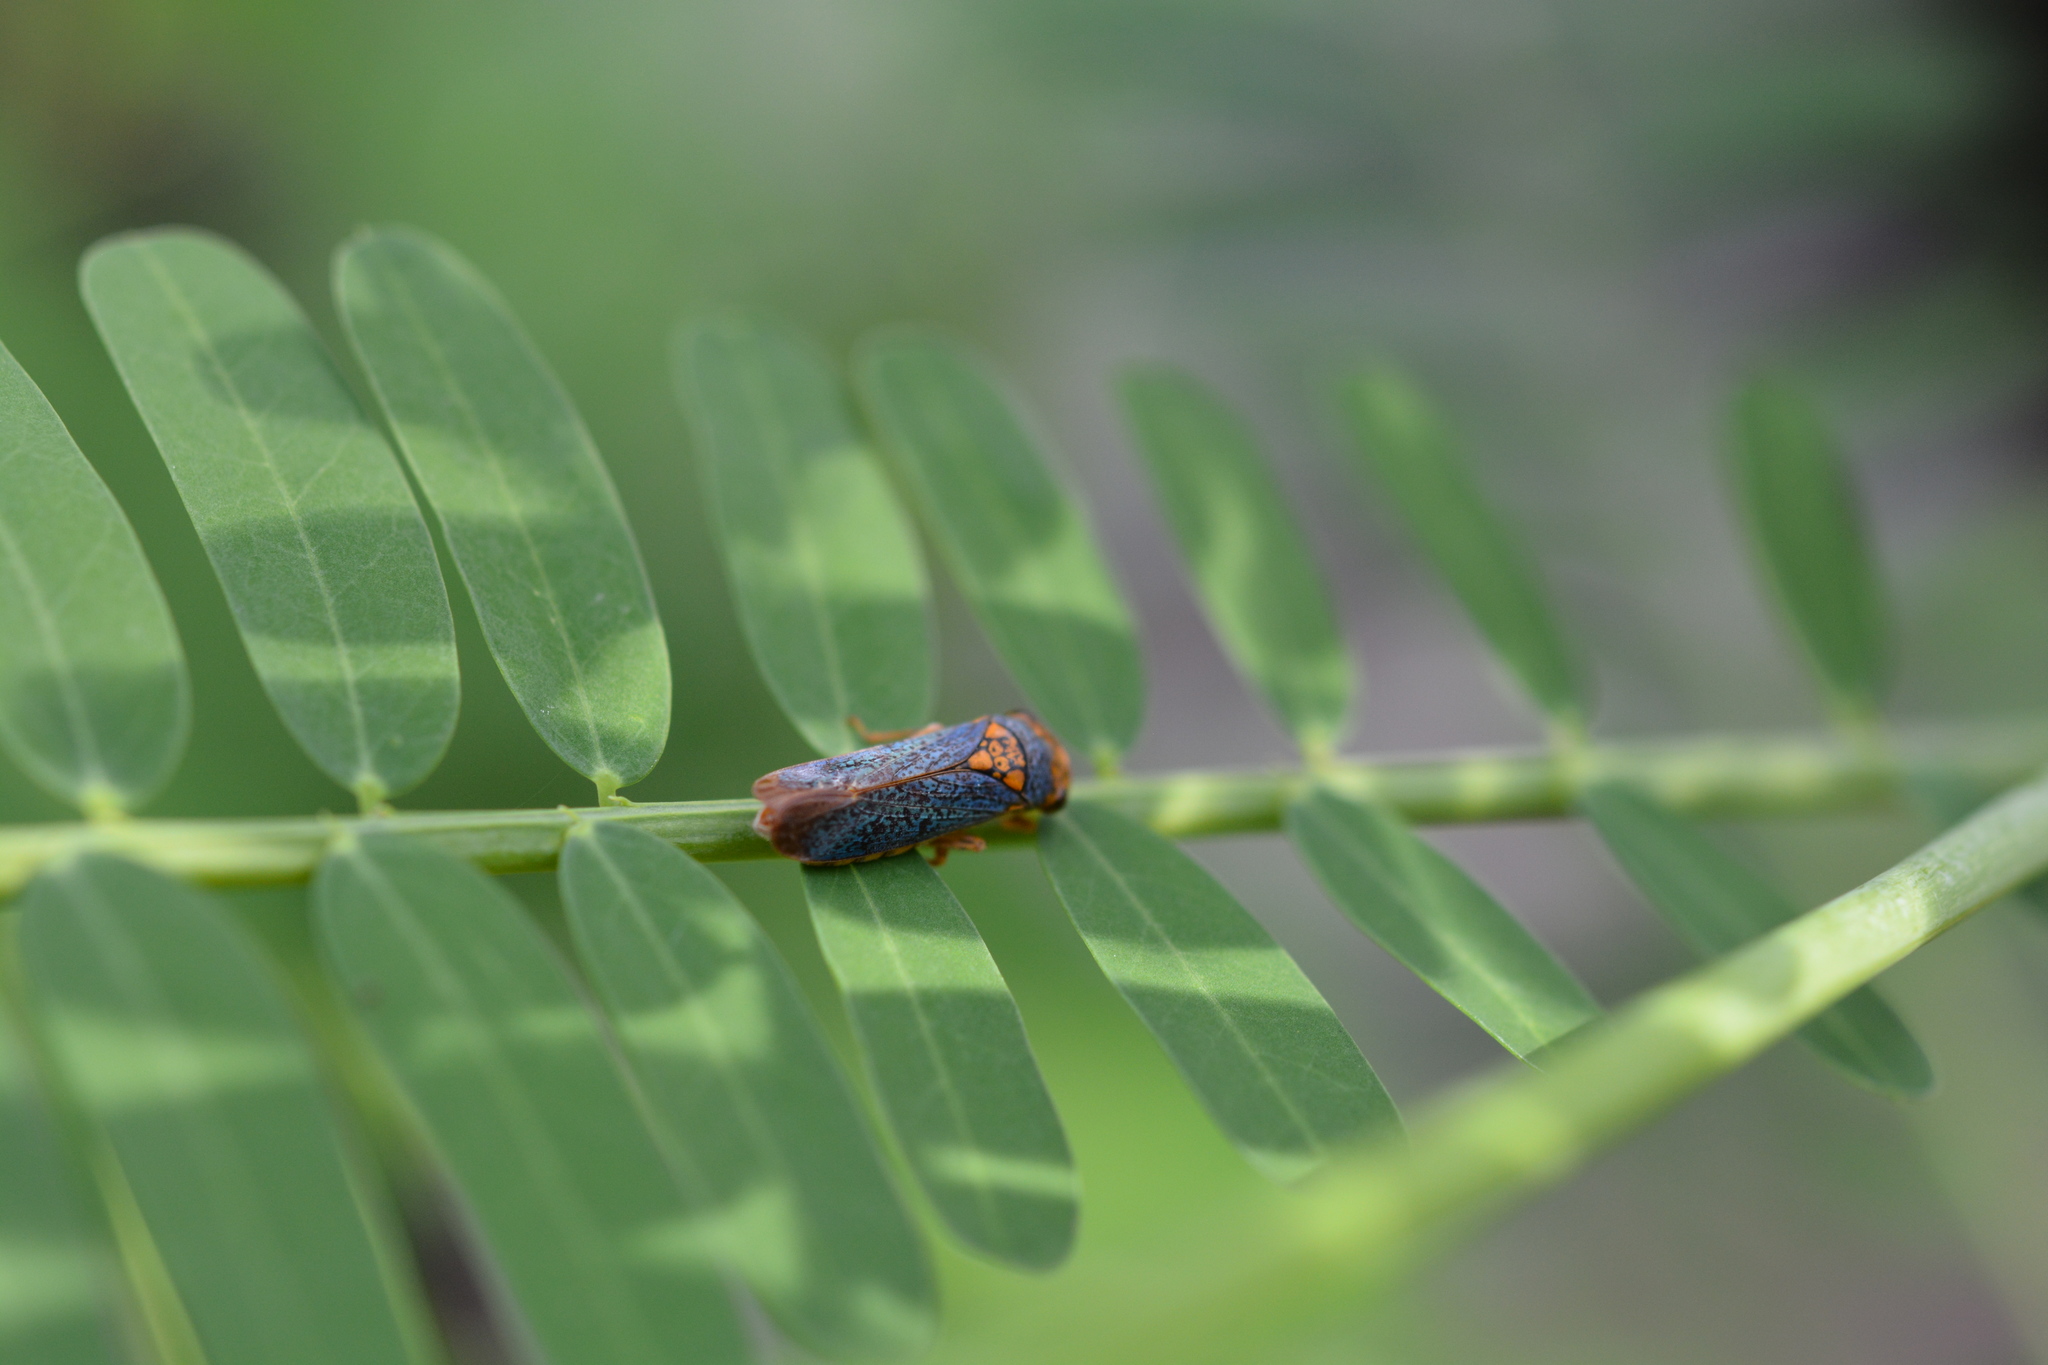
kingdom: Animalia
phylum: Arthropoda
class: Insecta
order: Hemiptera
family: Cicadellidae
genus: Oncometopia
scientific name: Oncometopia orbona
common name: Broad-headed sharpshooter
